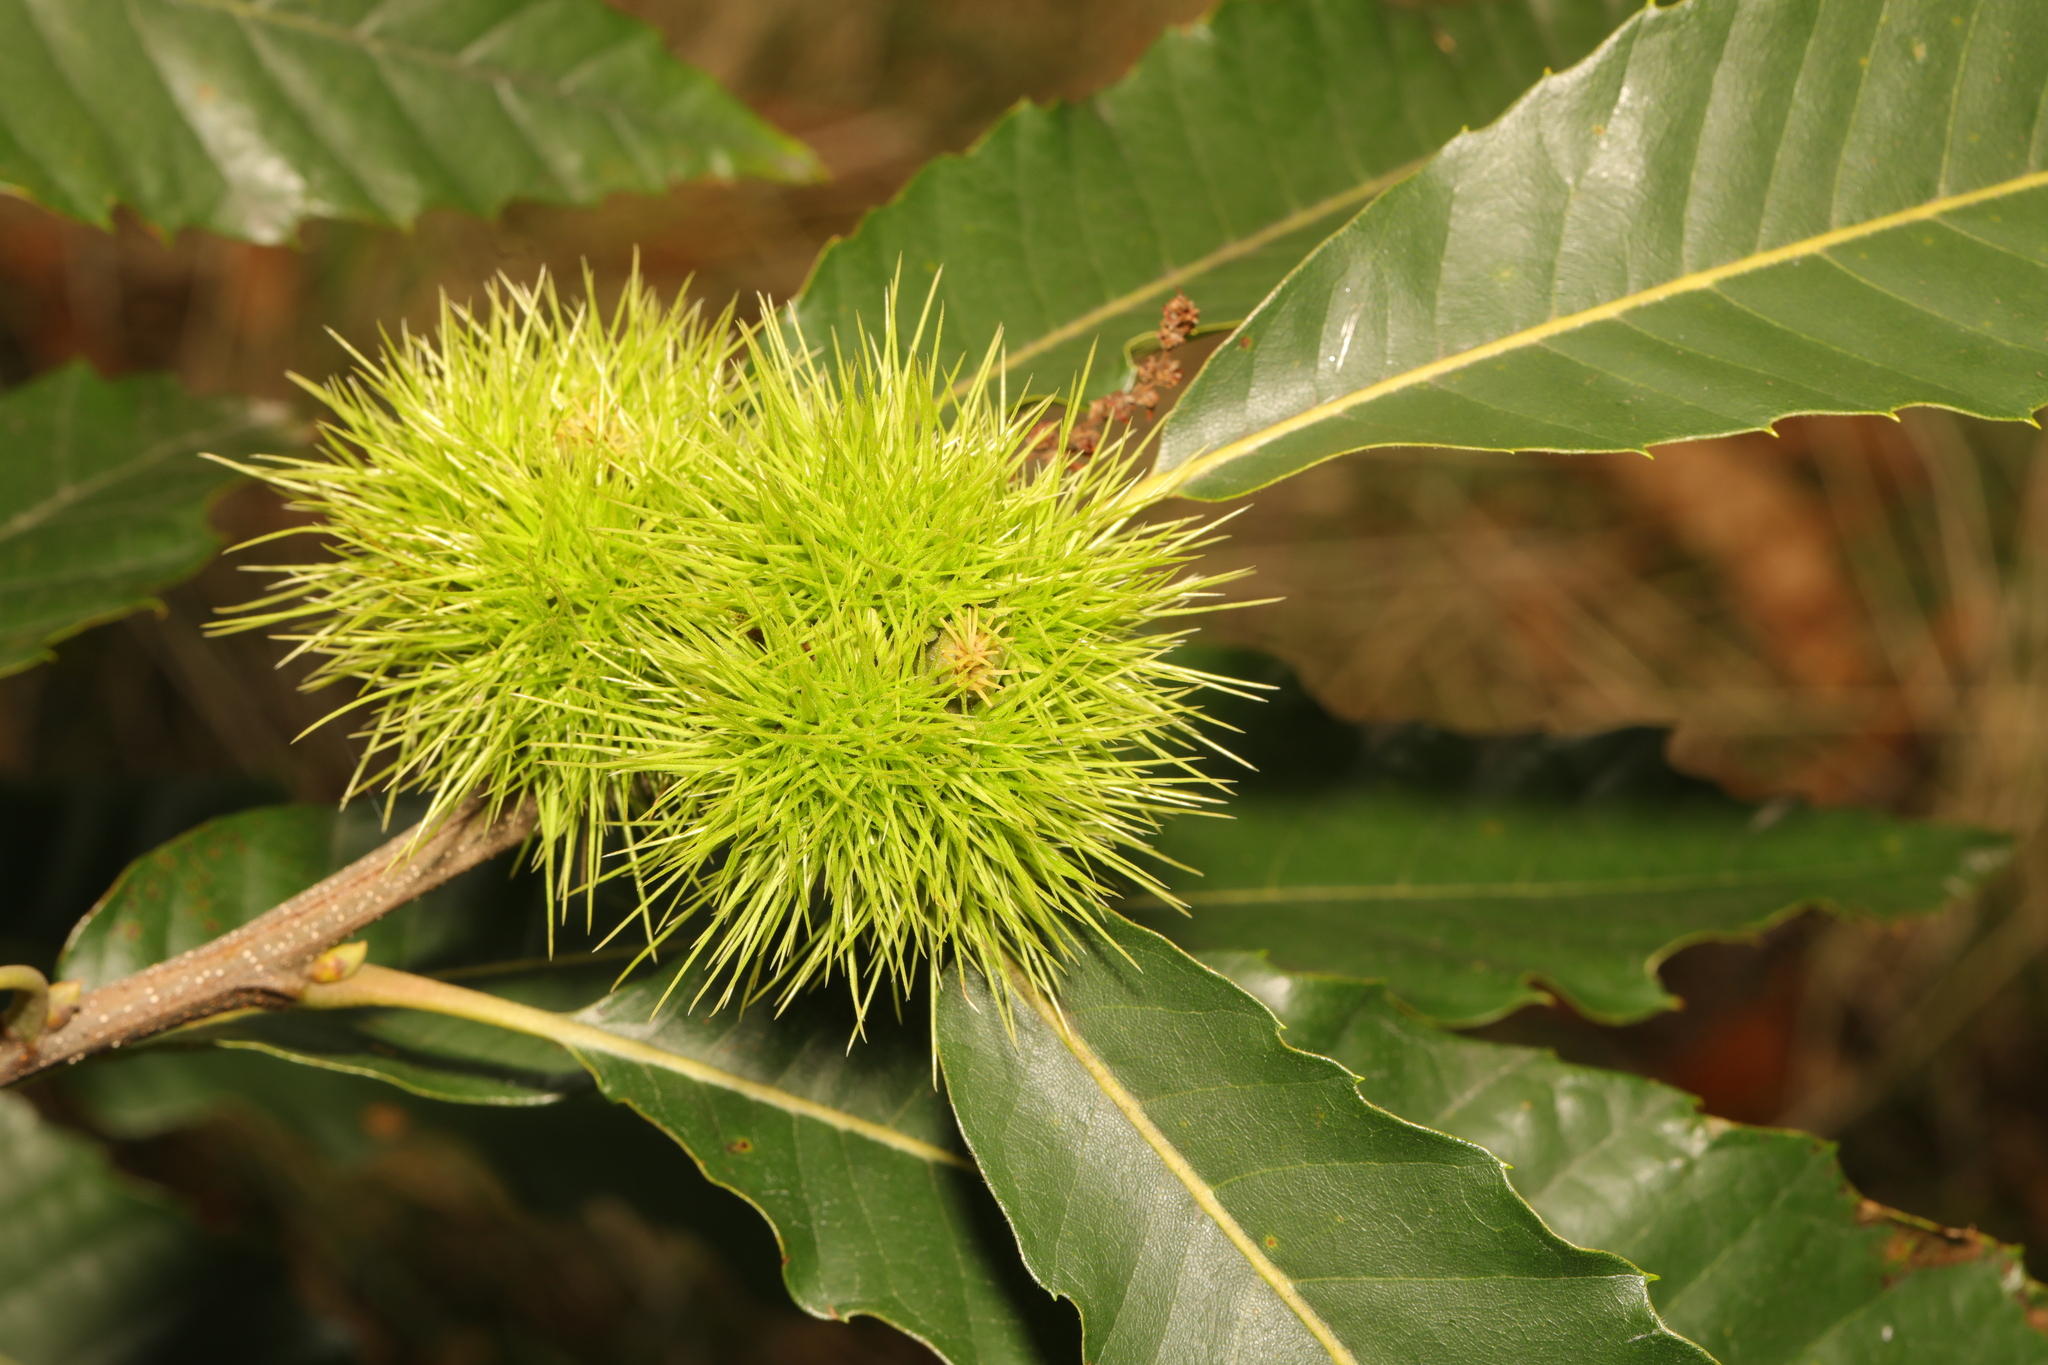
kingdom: Plantae
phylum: Tracheophyta
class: Magnoliopsida
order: Fagales
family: Fagaceae
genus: Castanea
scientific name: Castanea sativa
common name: Sweet chestnut
